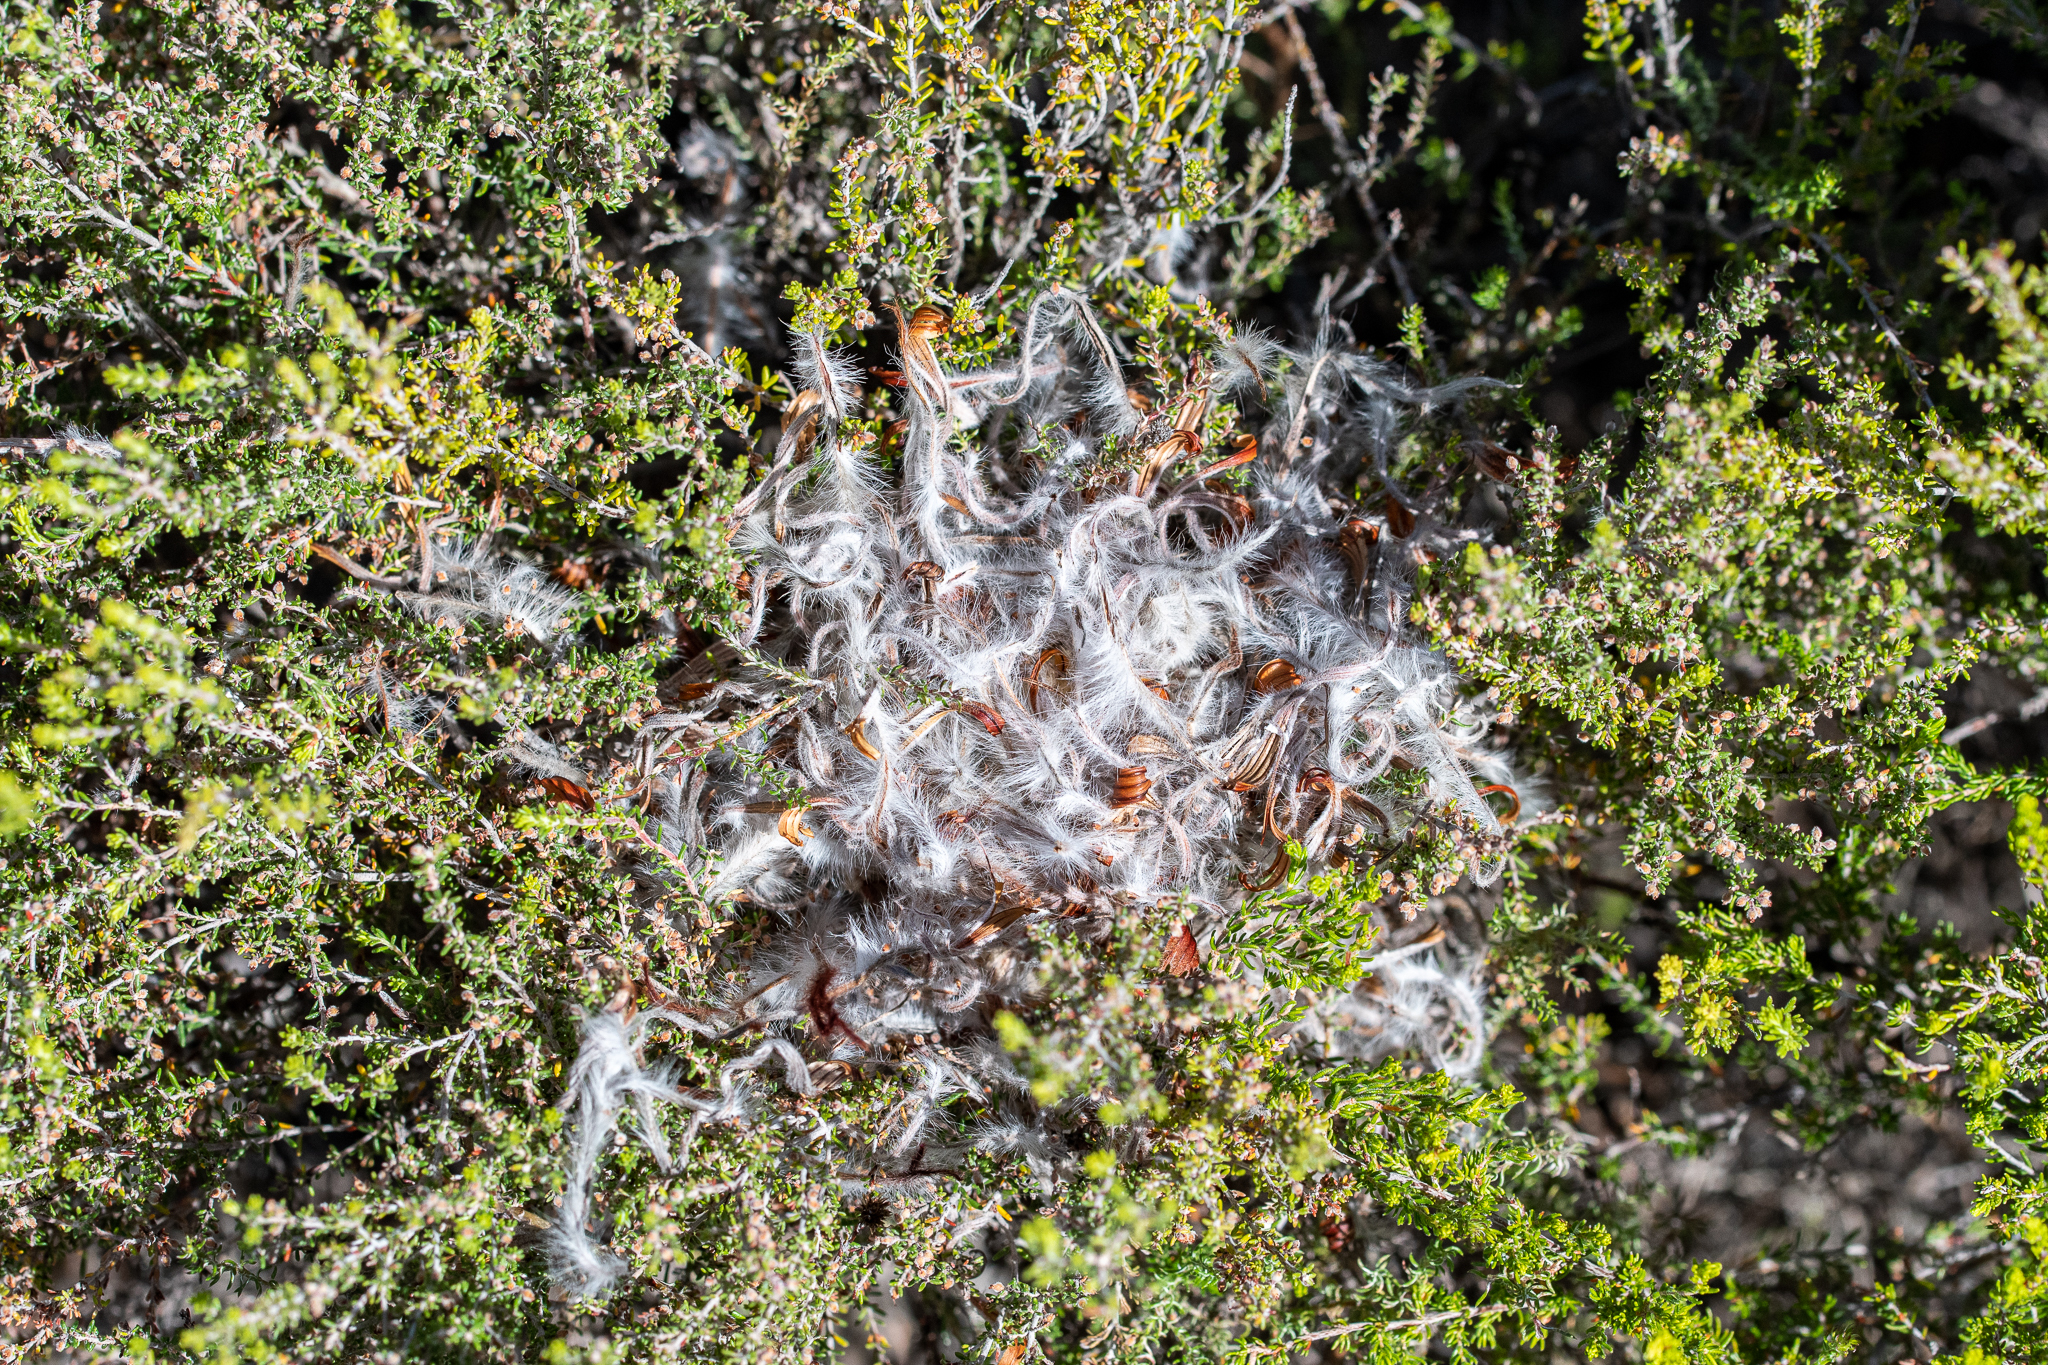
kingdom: Plantae
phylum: Tracheophyta
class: Magnoliopsida
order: Ericales
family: Ericaceae
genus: Erica
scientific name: Erica puberuliflora
